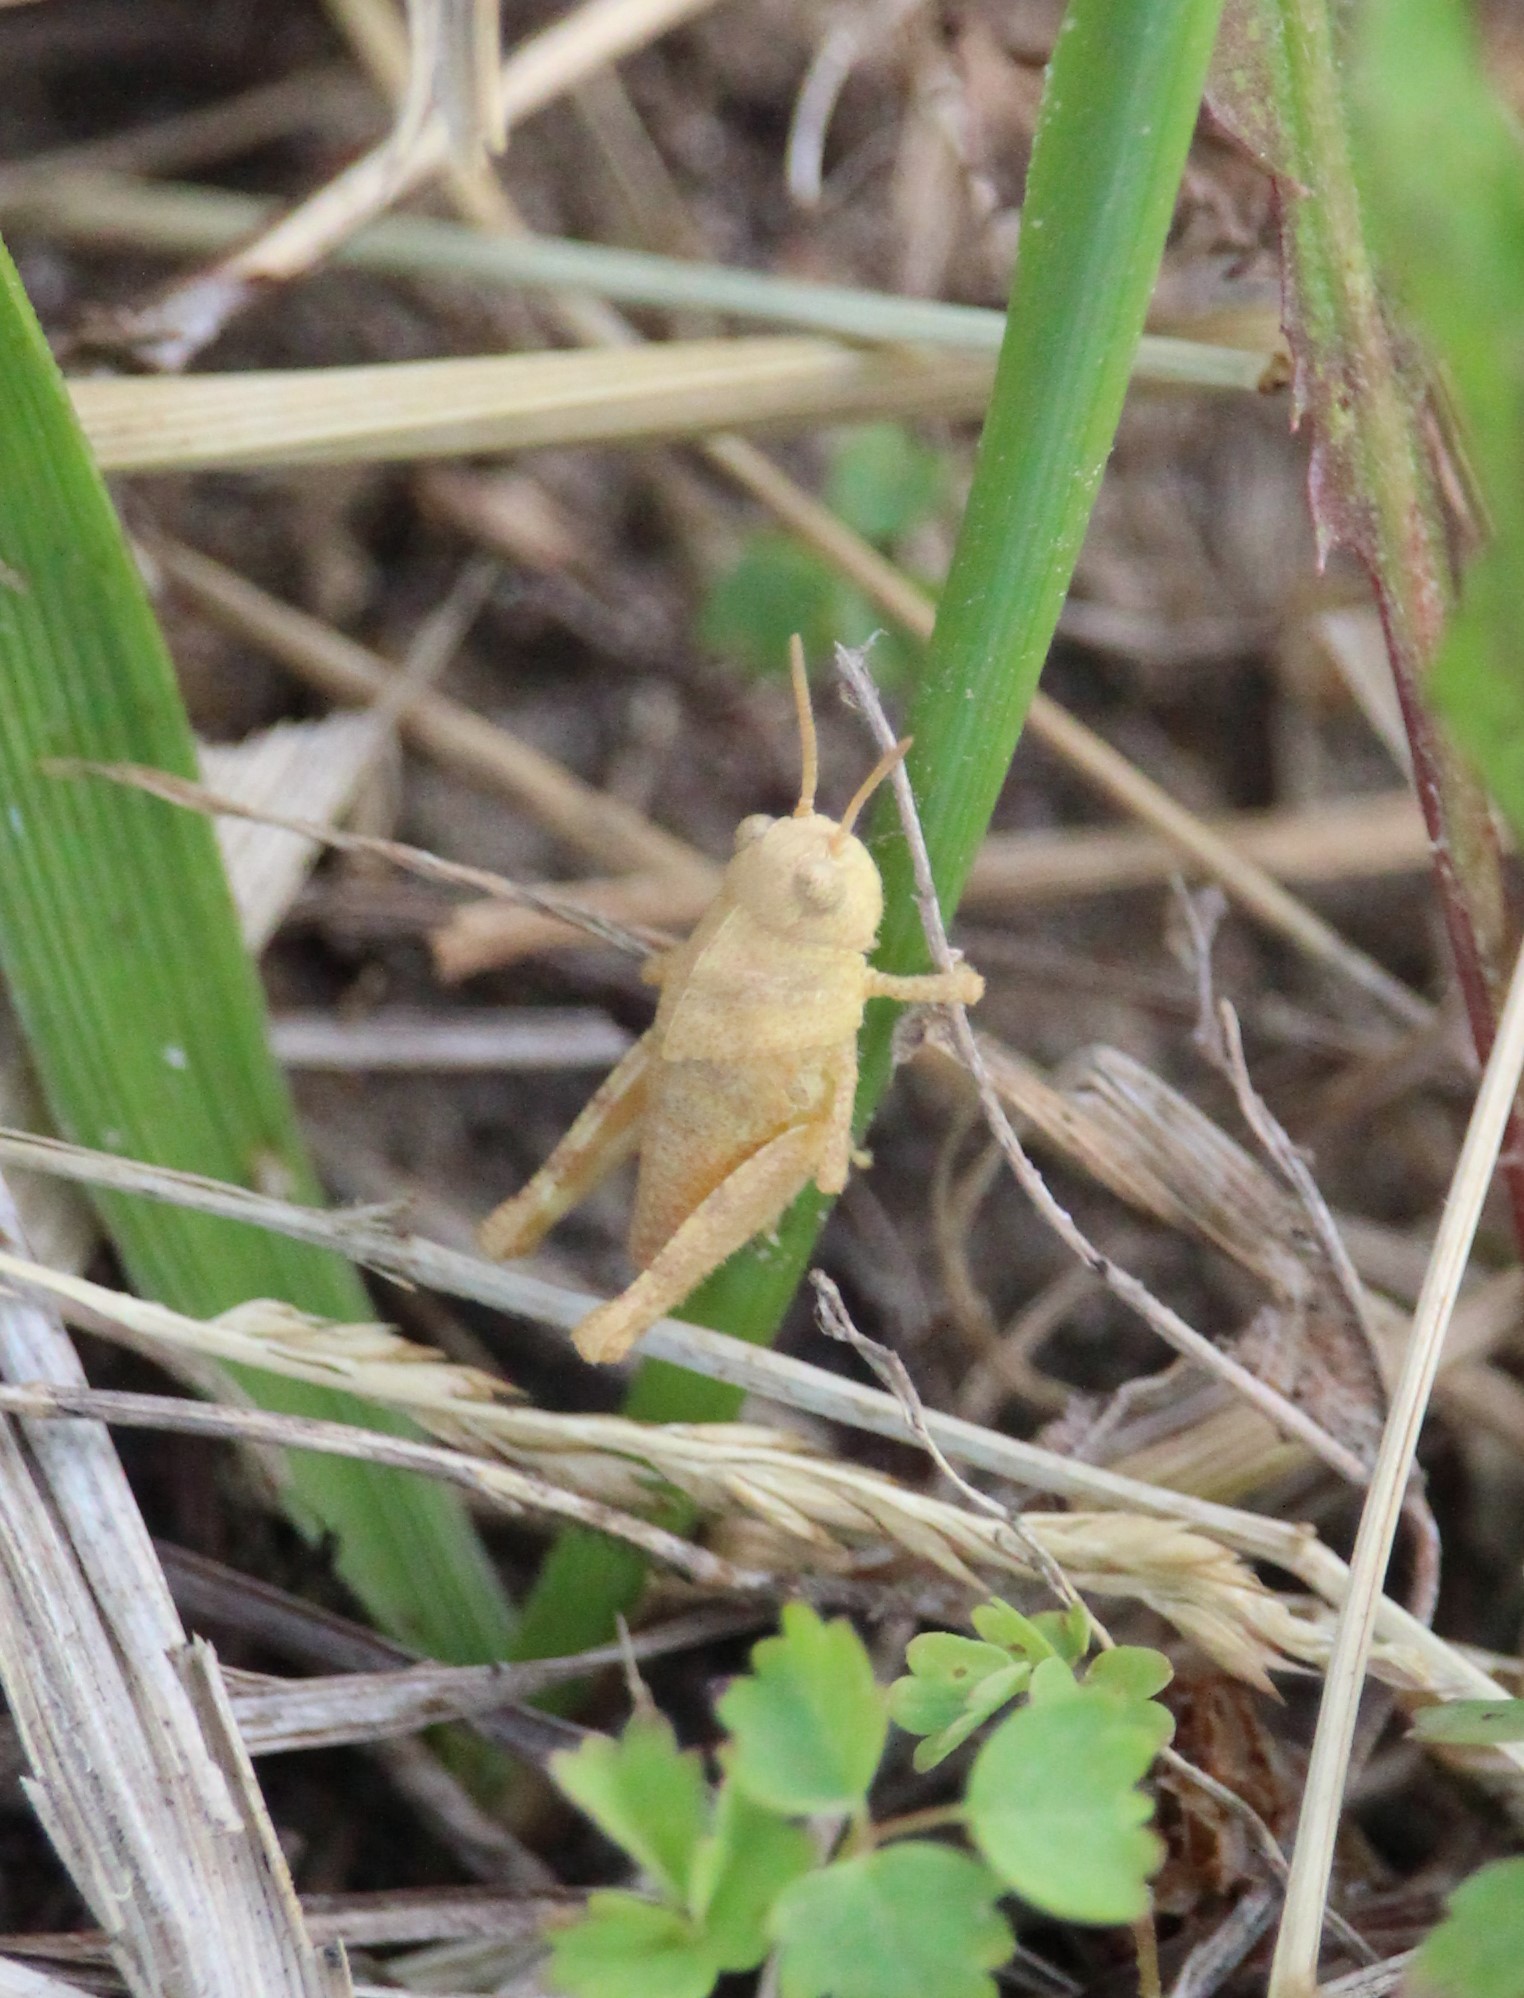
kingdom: Animalia
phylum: Arthropoda
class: Insecta
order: Orthoptera
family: Acrididae
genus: Dissosteira
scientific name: Dissosteira carolina
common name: Carolina grasshopper
